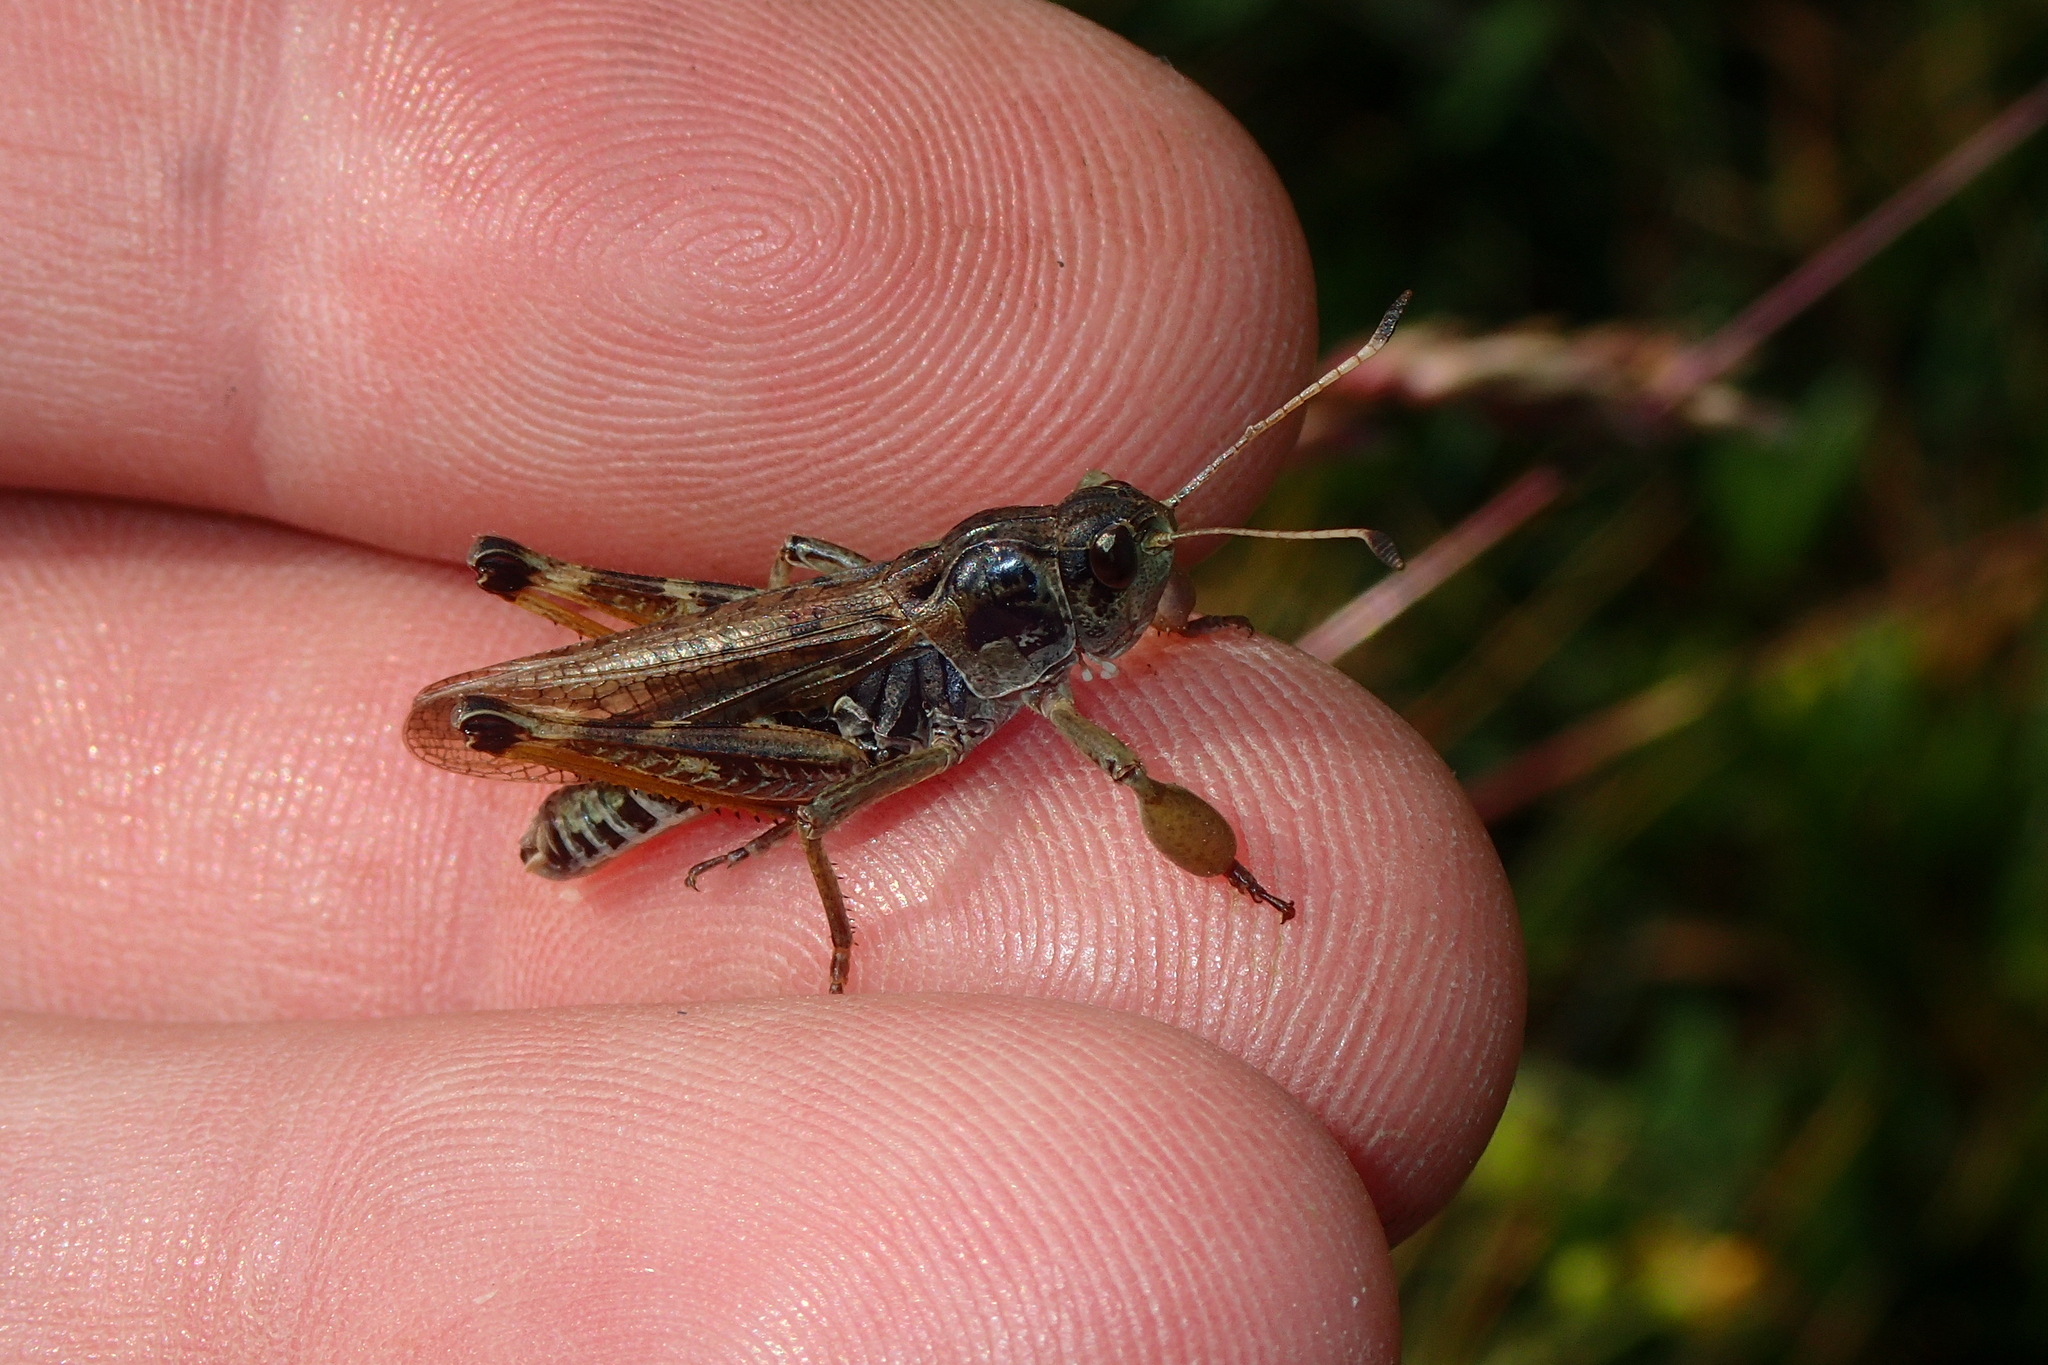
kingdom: Animalia
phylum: Arthropoda
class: Insecta
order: Orthoptera
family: Acrididae
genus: Gomphocerus
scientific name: Gomphocerus sibiricus
